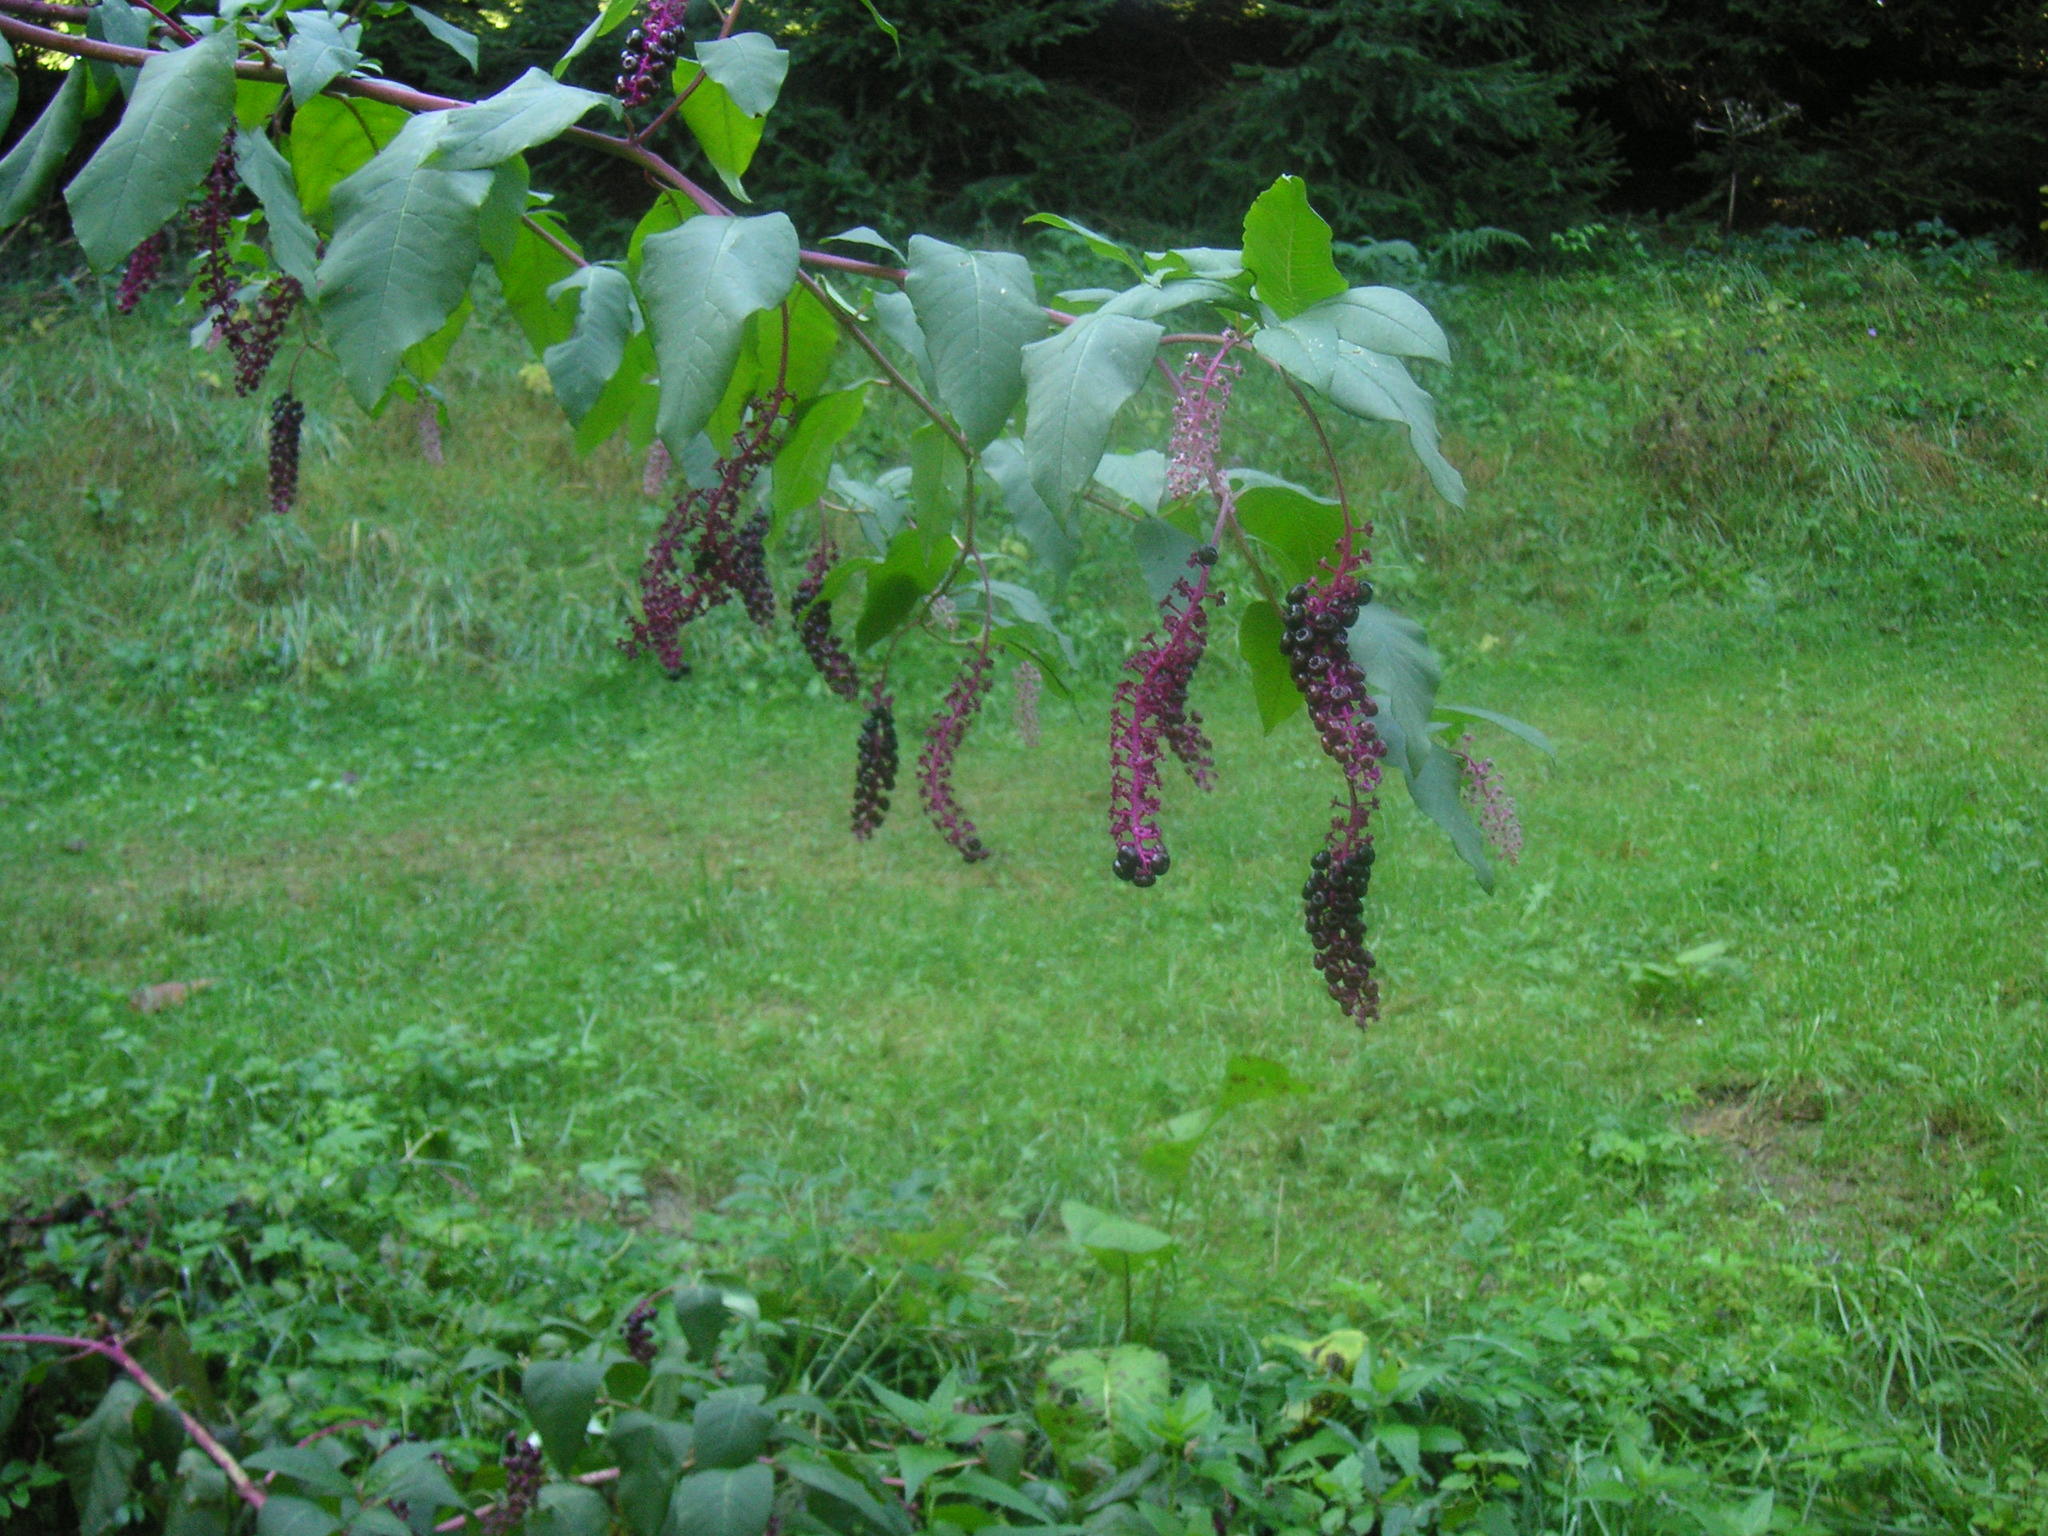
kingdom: Plantae
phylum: Tracheophyta
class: Magnoliopsida
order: Caryophyllales
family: Phytolaccaceae
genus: Phytolacca
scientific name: Phytolacca americana
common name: American pokeweed
